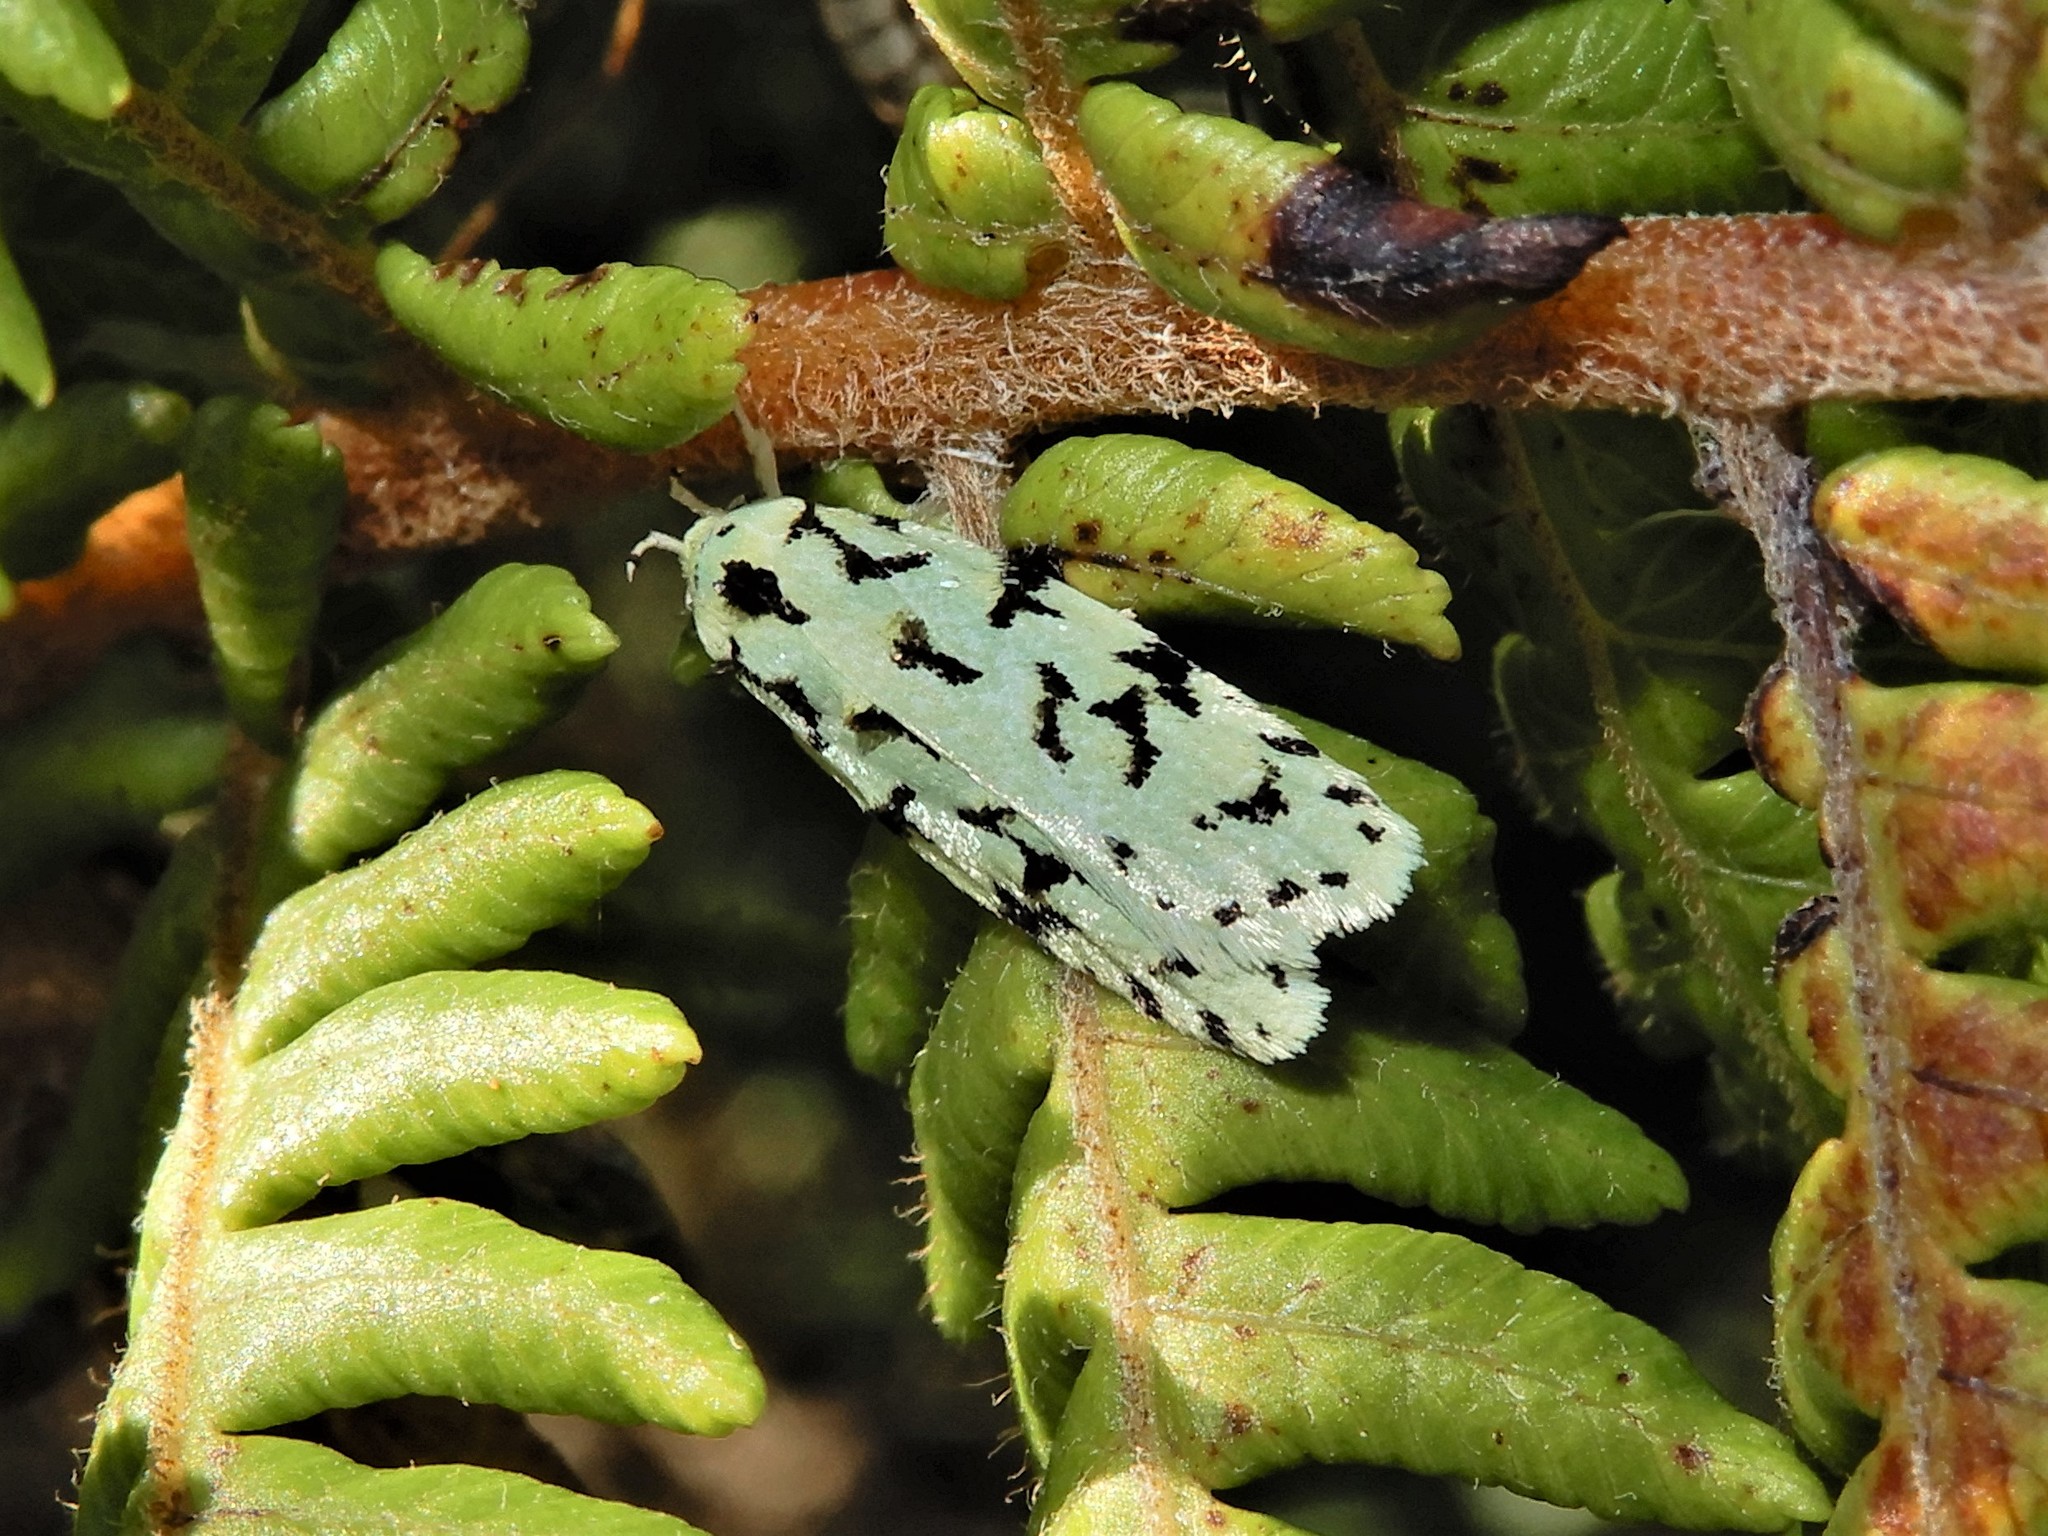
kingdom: Animalia
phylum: Arthropoda
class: Insecta
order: Lepidoptera
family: Oecophoridae
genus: Izatha
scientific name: Izatha peroneanella
